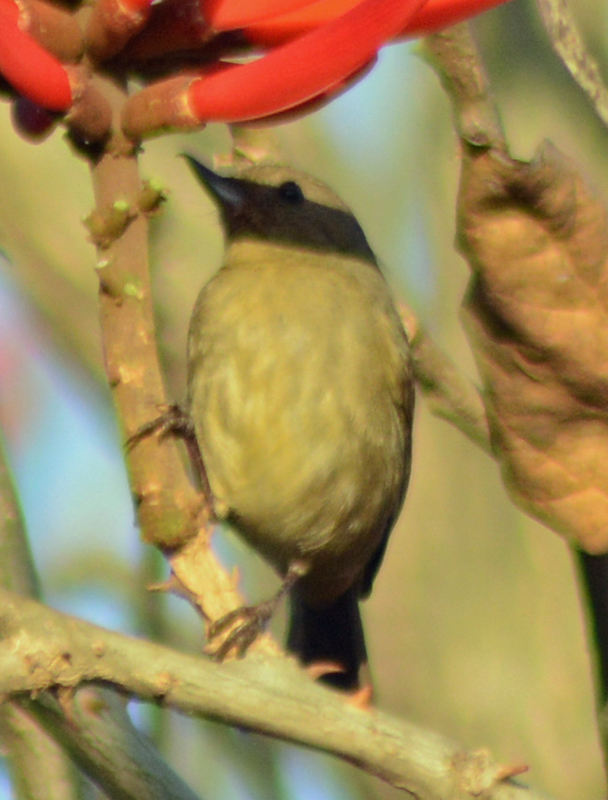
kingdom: Animalia
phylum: Chordata
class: Aves
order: Passeriformes
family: Thraupidae
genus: Diglossa
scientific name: Diglossa baritula
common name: Cinnamon-bellied flowerpiercer
